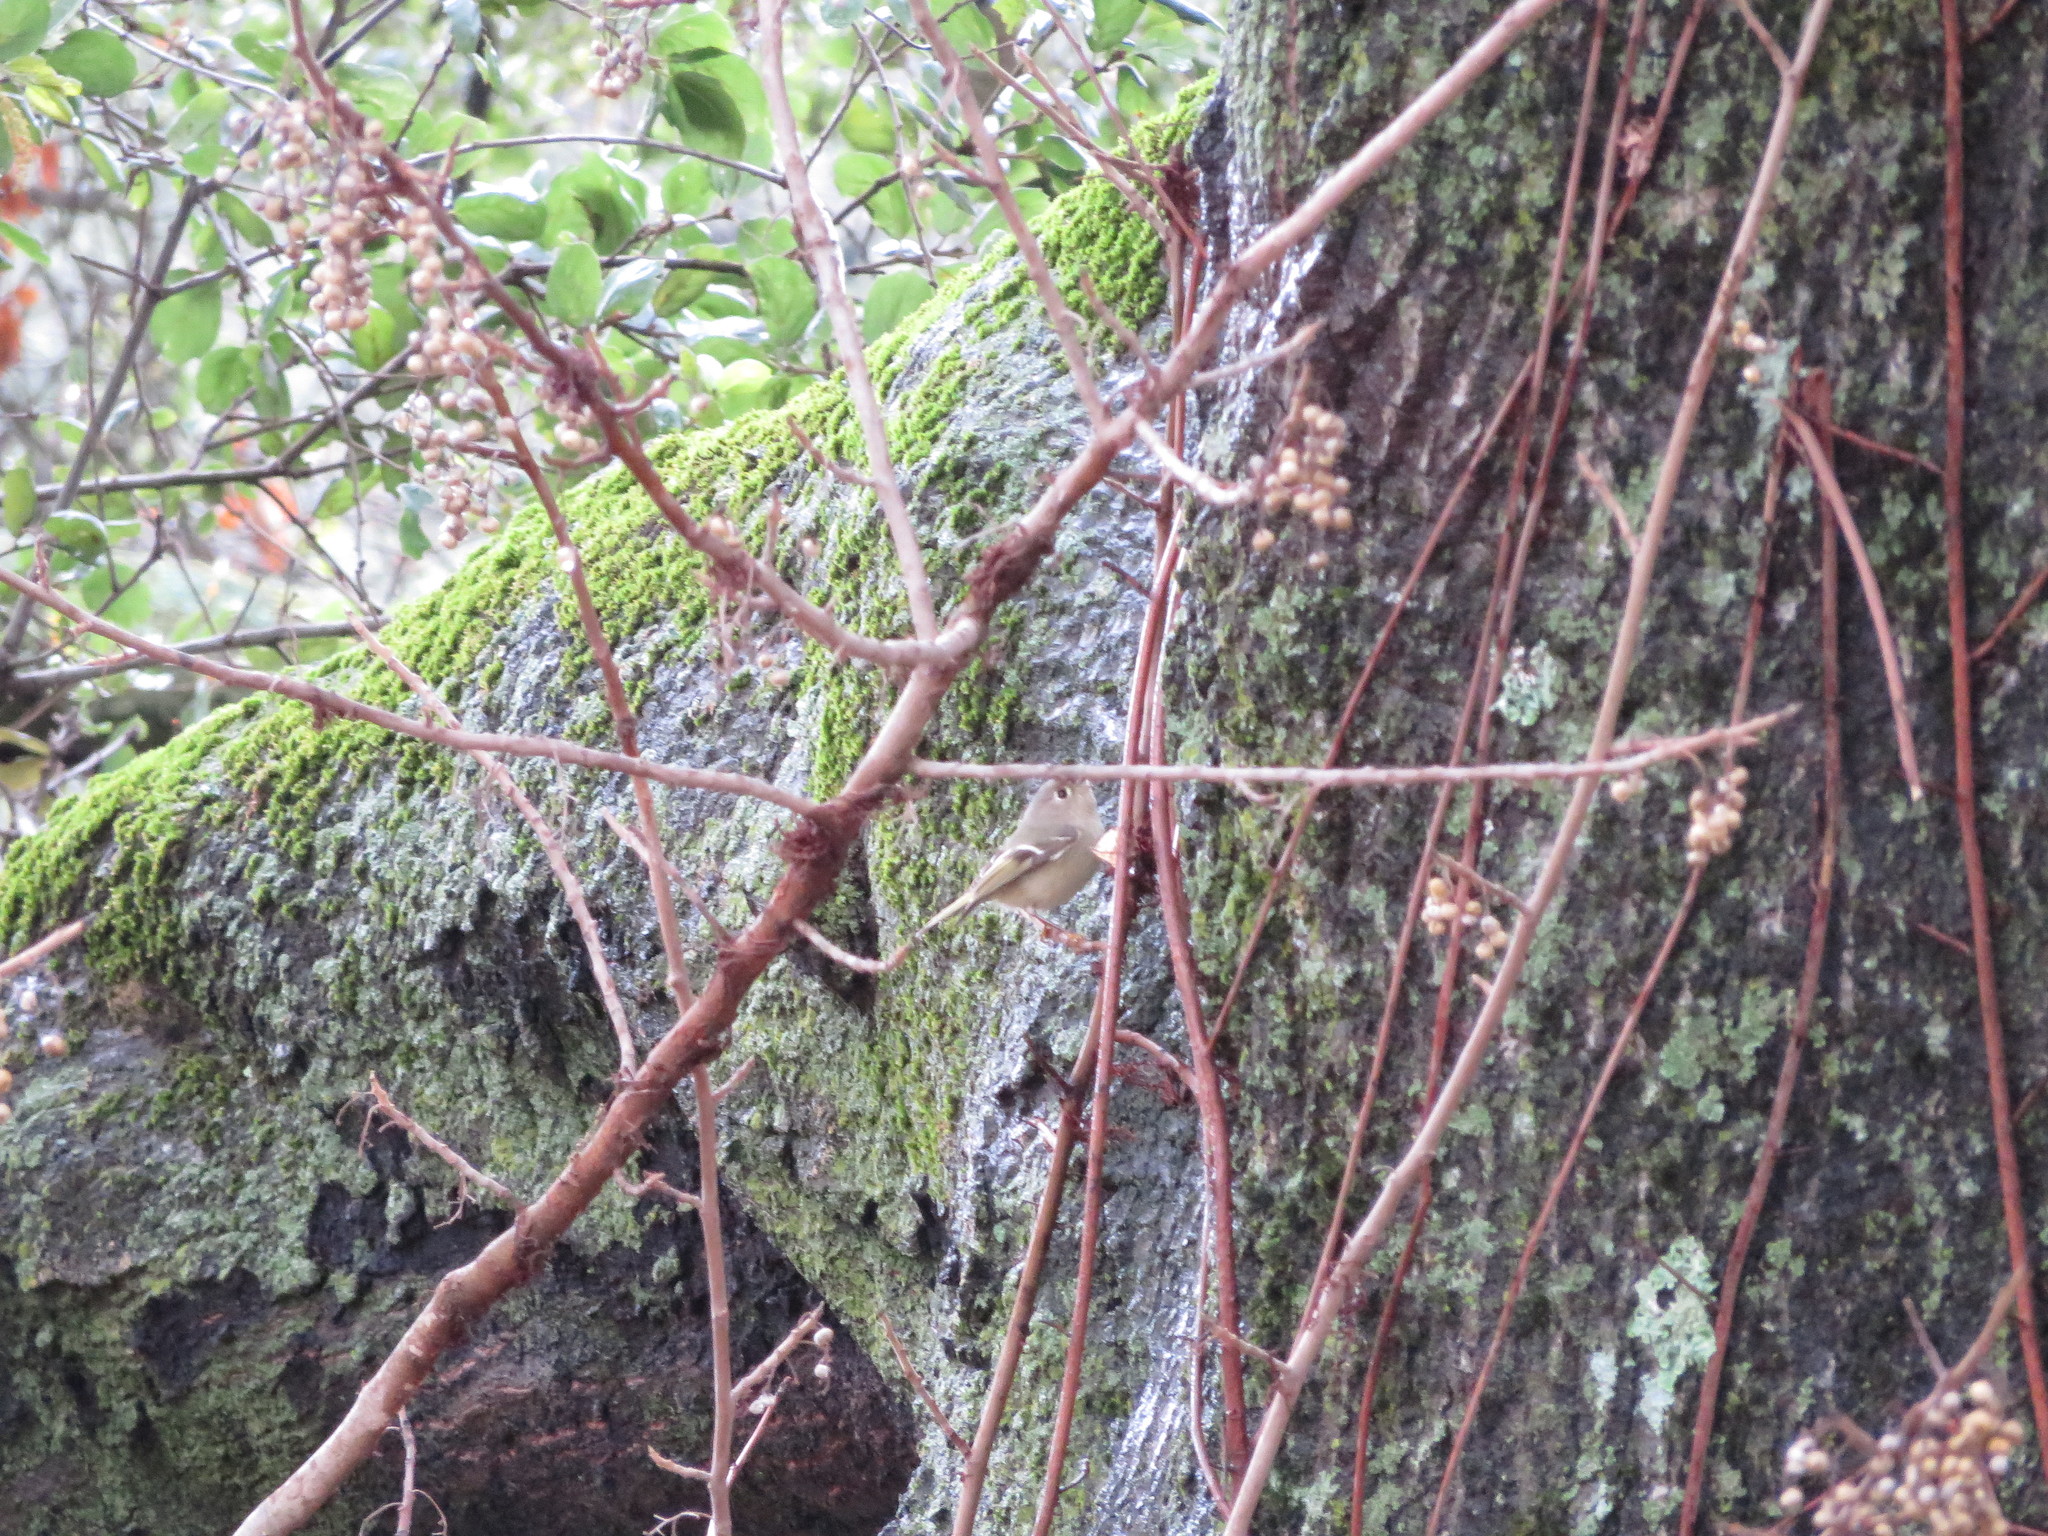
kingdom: Animalia
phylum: Chordata
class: Aves
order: Passeriformes
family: Regulidae
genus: Regulus
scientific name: Regulus calendula
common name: Ruby-crowned kinglet
